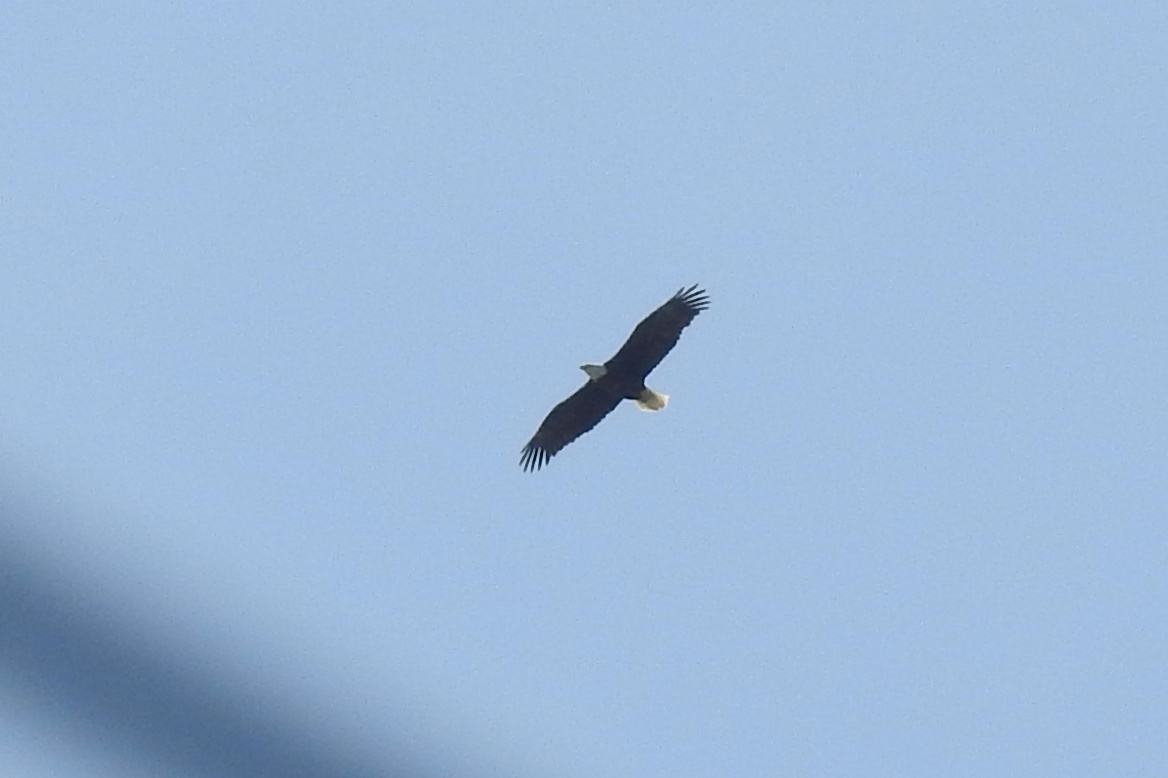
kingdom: Animalia
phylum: Chordata
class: Aves
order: Accipitriformes
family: Accipitridae
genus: Haliaeetus
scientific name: Haliaeetus leucocephalus
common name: Bald eagle
